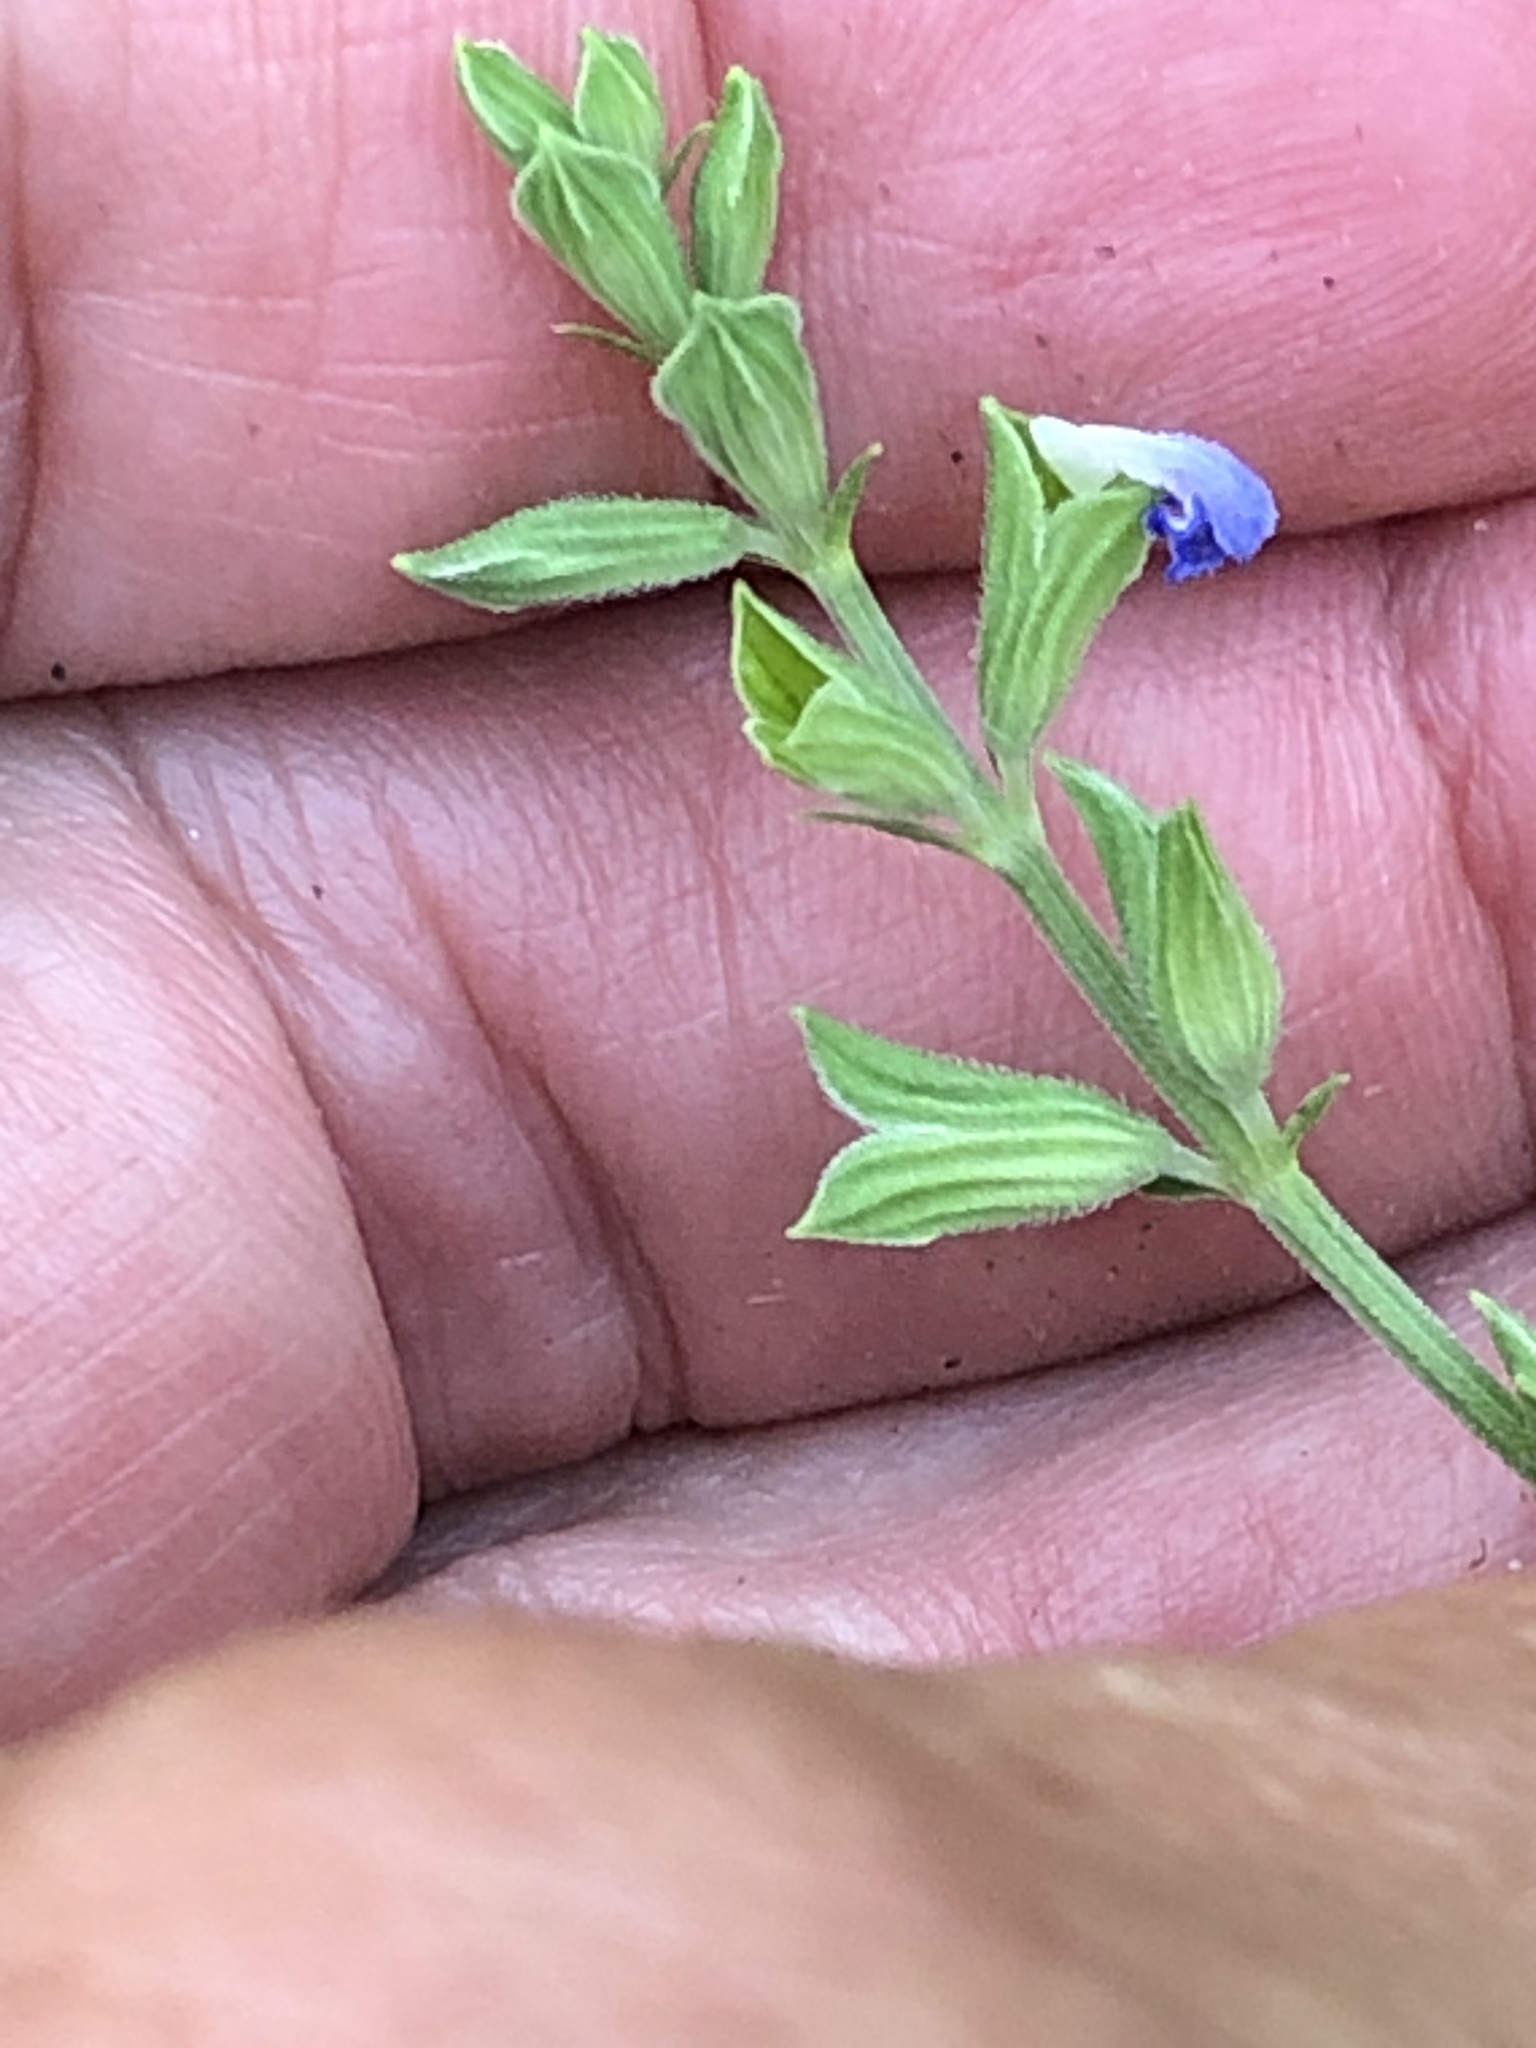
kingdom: Plantae
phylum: Tracheophyta
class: Magnoliopsida
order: Lamiales
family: Lamiaceae
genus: Salvia
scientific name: Salvia reflexa
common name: Mintweed
